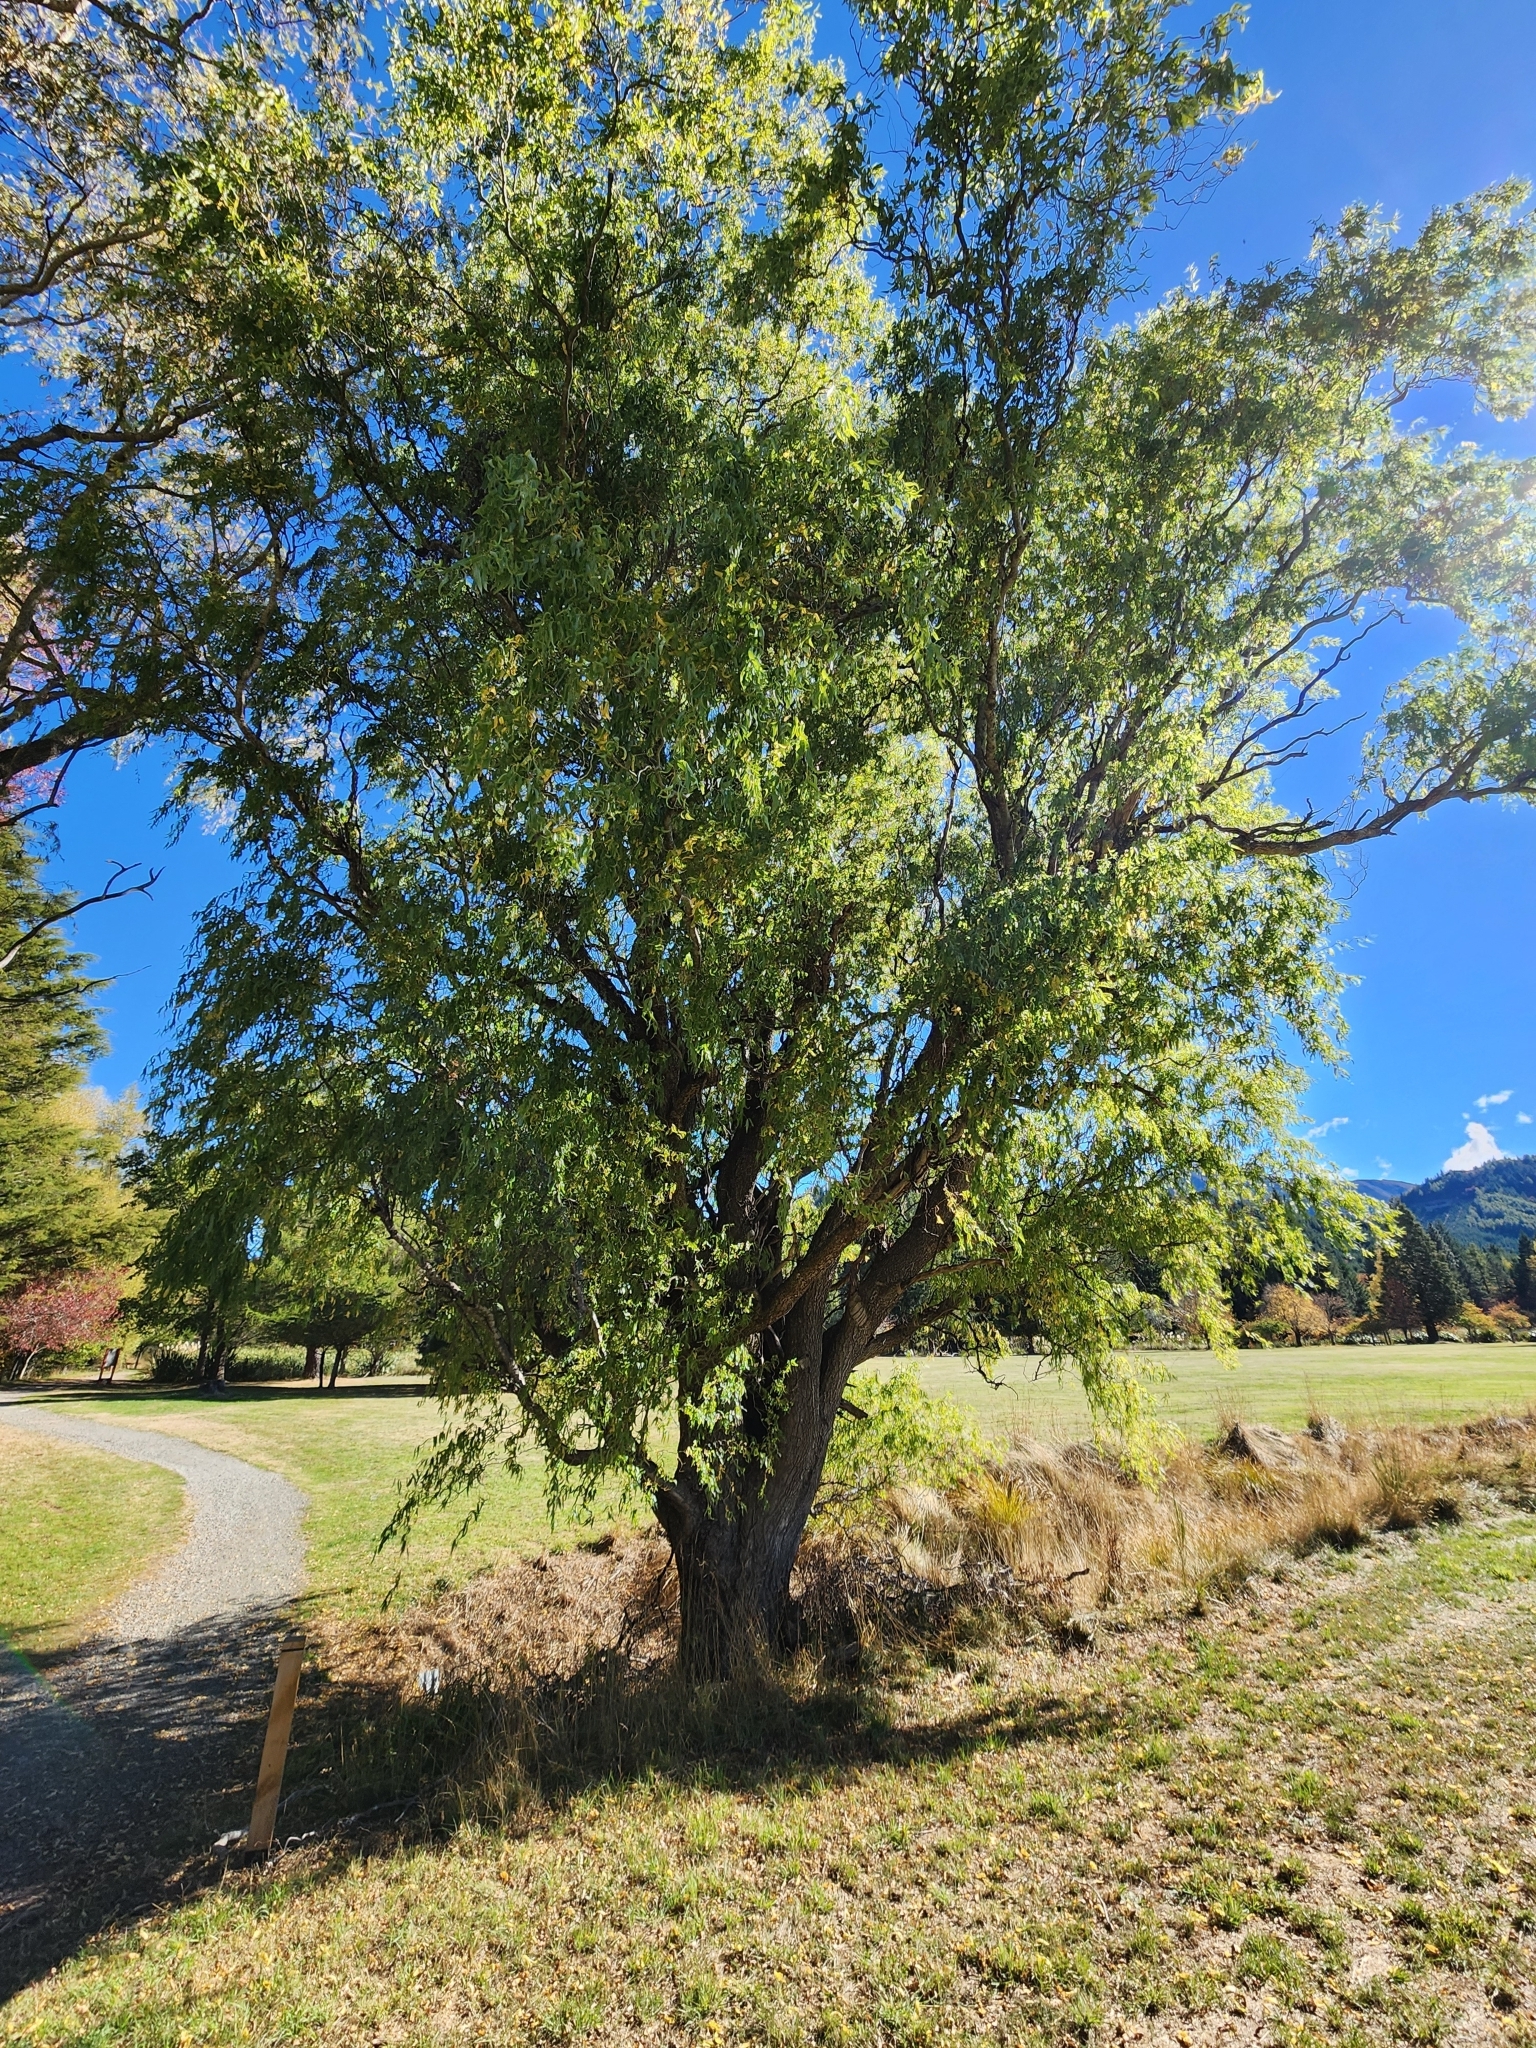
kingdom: Plantae
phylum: Tracheophyta
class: Magnoliopsida
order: Malpighiales
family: Salicaceae
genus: Salix
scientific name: Salix babylonica
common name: Weeping willow
